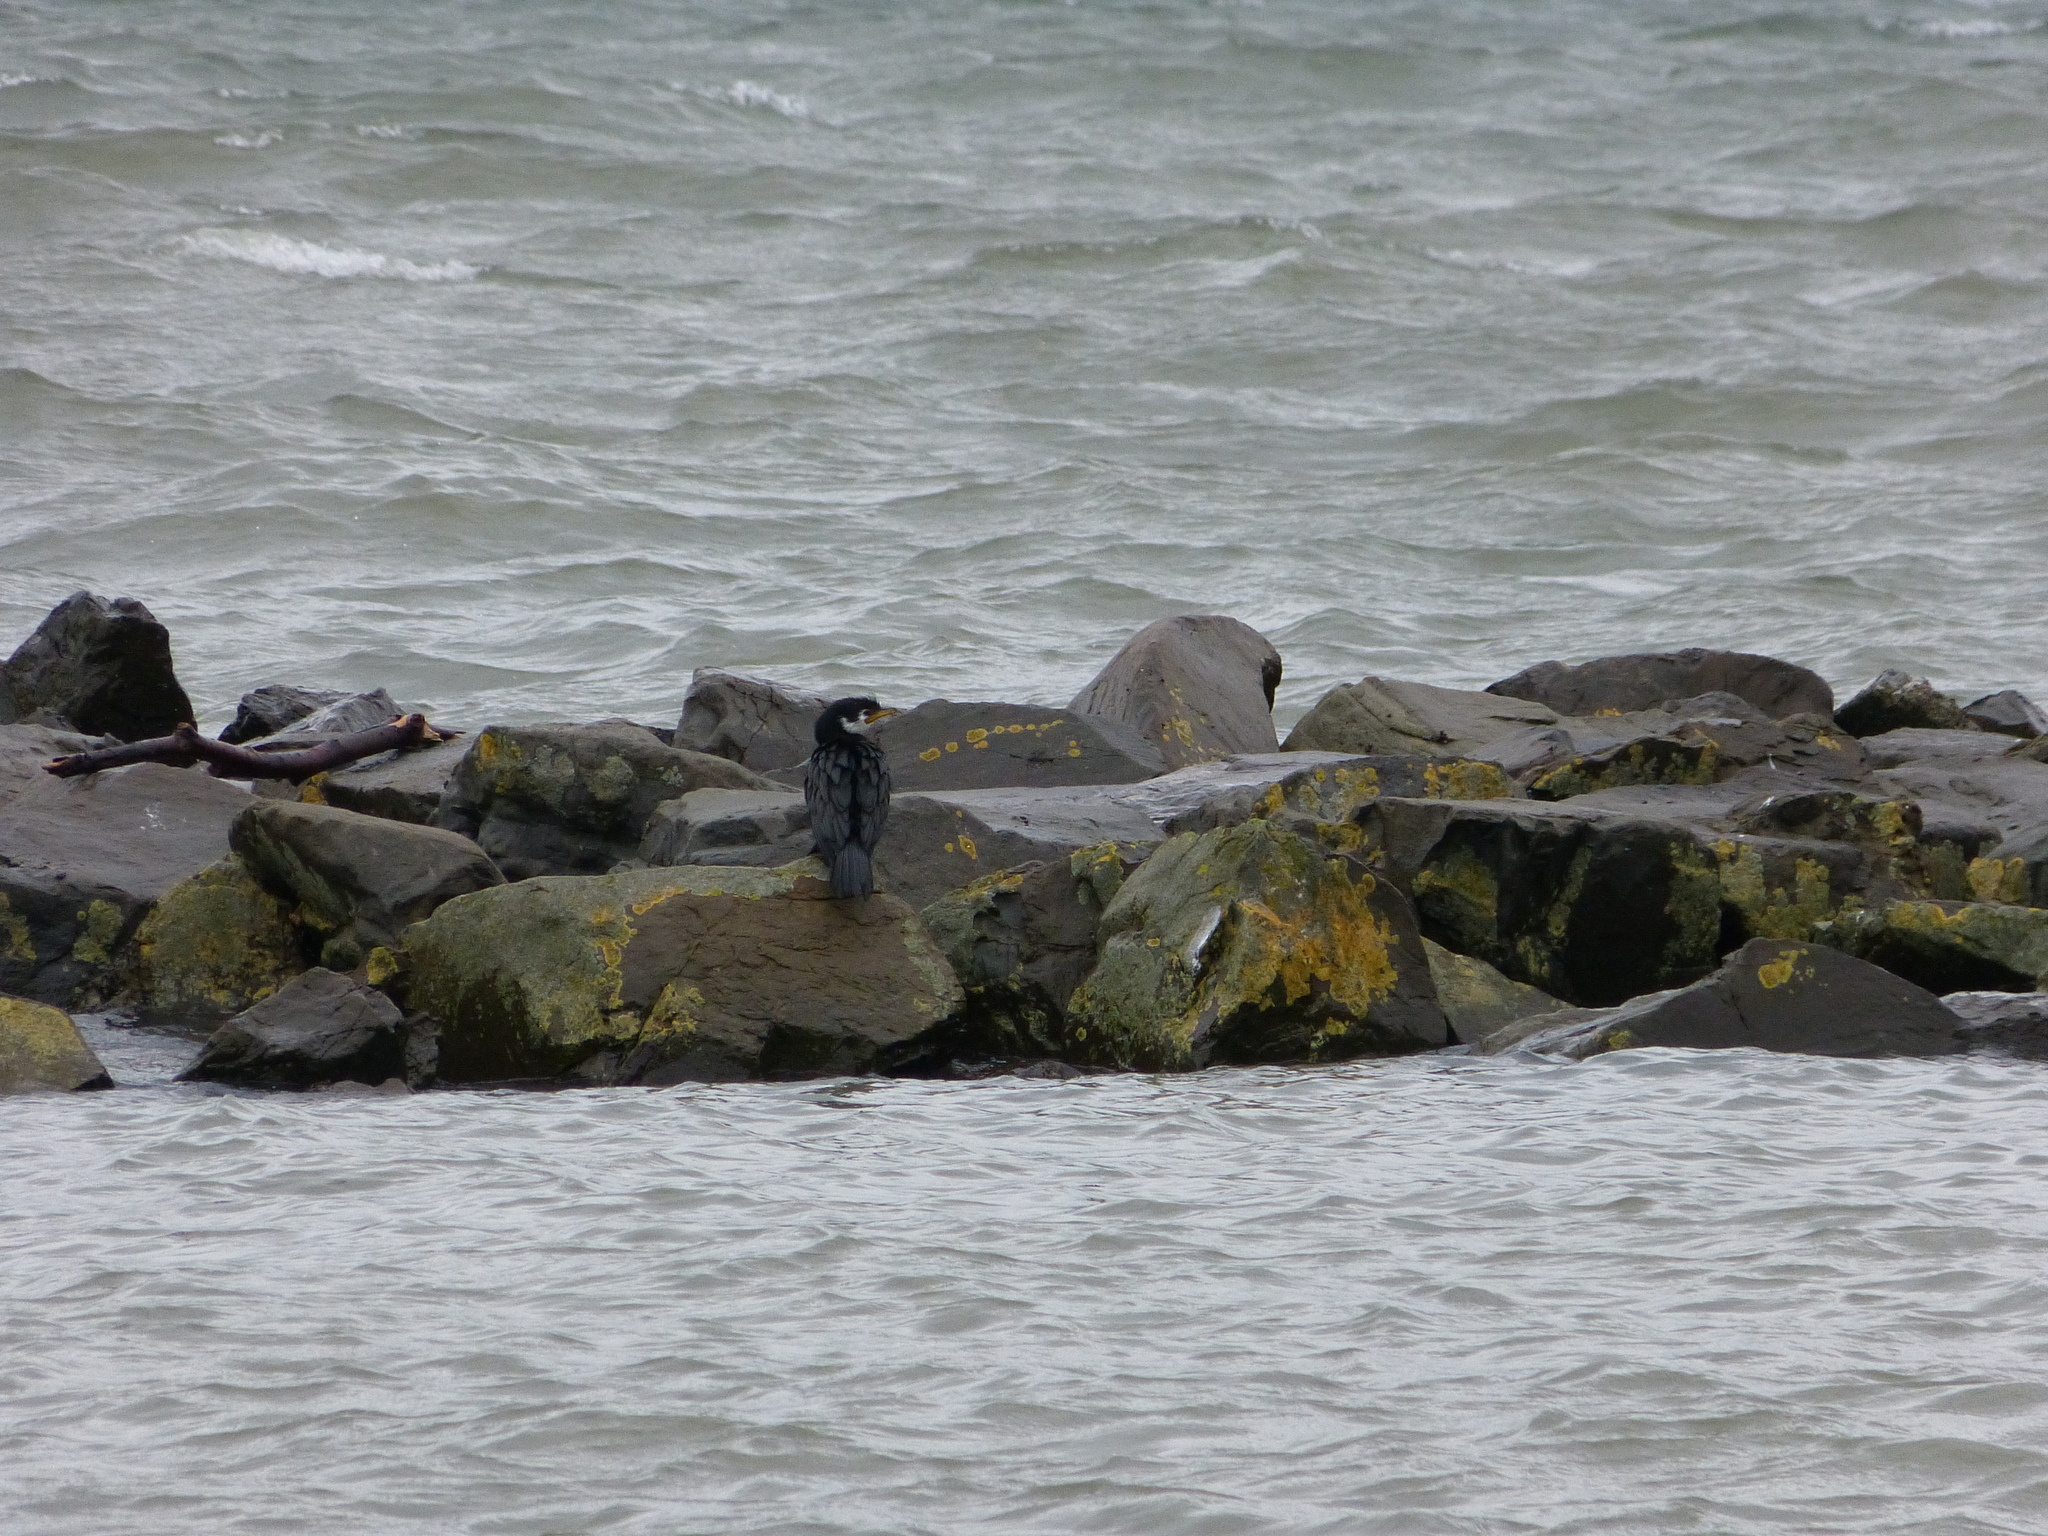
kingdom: Animalia
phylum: Chordata
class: Aves
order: Suliformes
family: Phalacrocoracidae
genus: Microcarbo
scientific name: Microcarbo melanoleucos
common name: Little pied cormorant
